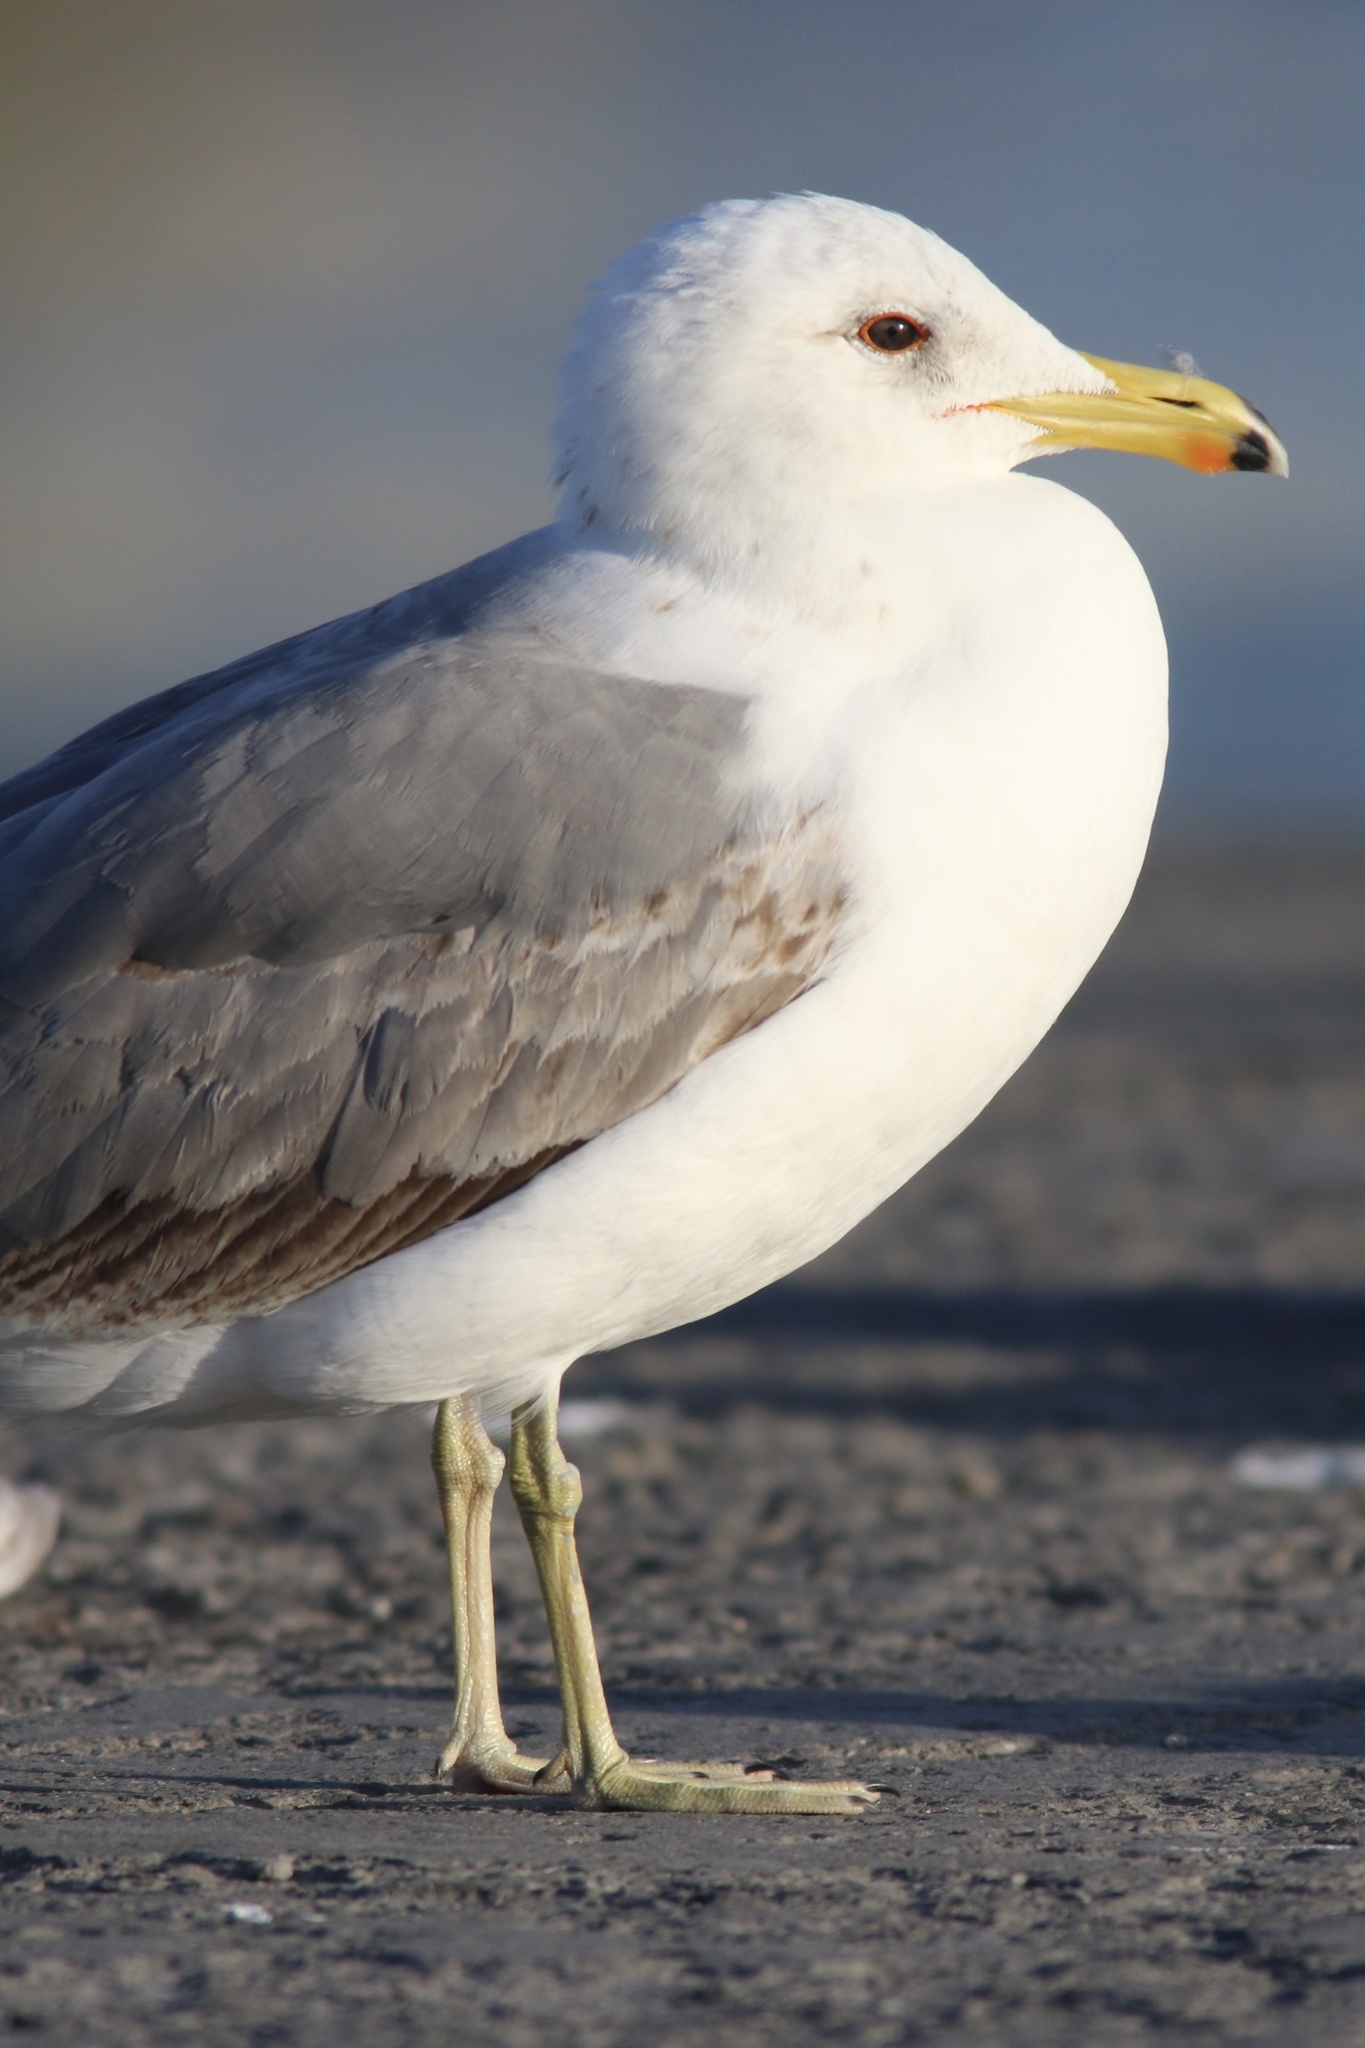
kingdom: Animalia
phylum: Chordata
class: Aves
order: Charadriiformes
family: Laridae
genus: Larus
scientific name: Larus californicus
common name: California gull
